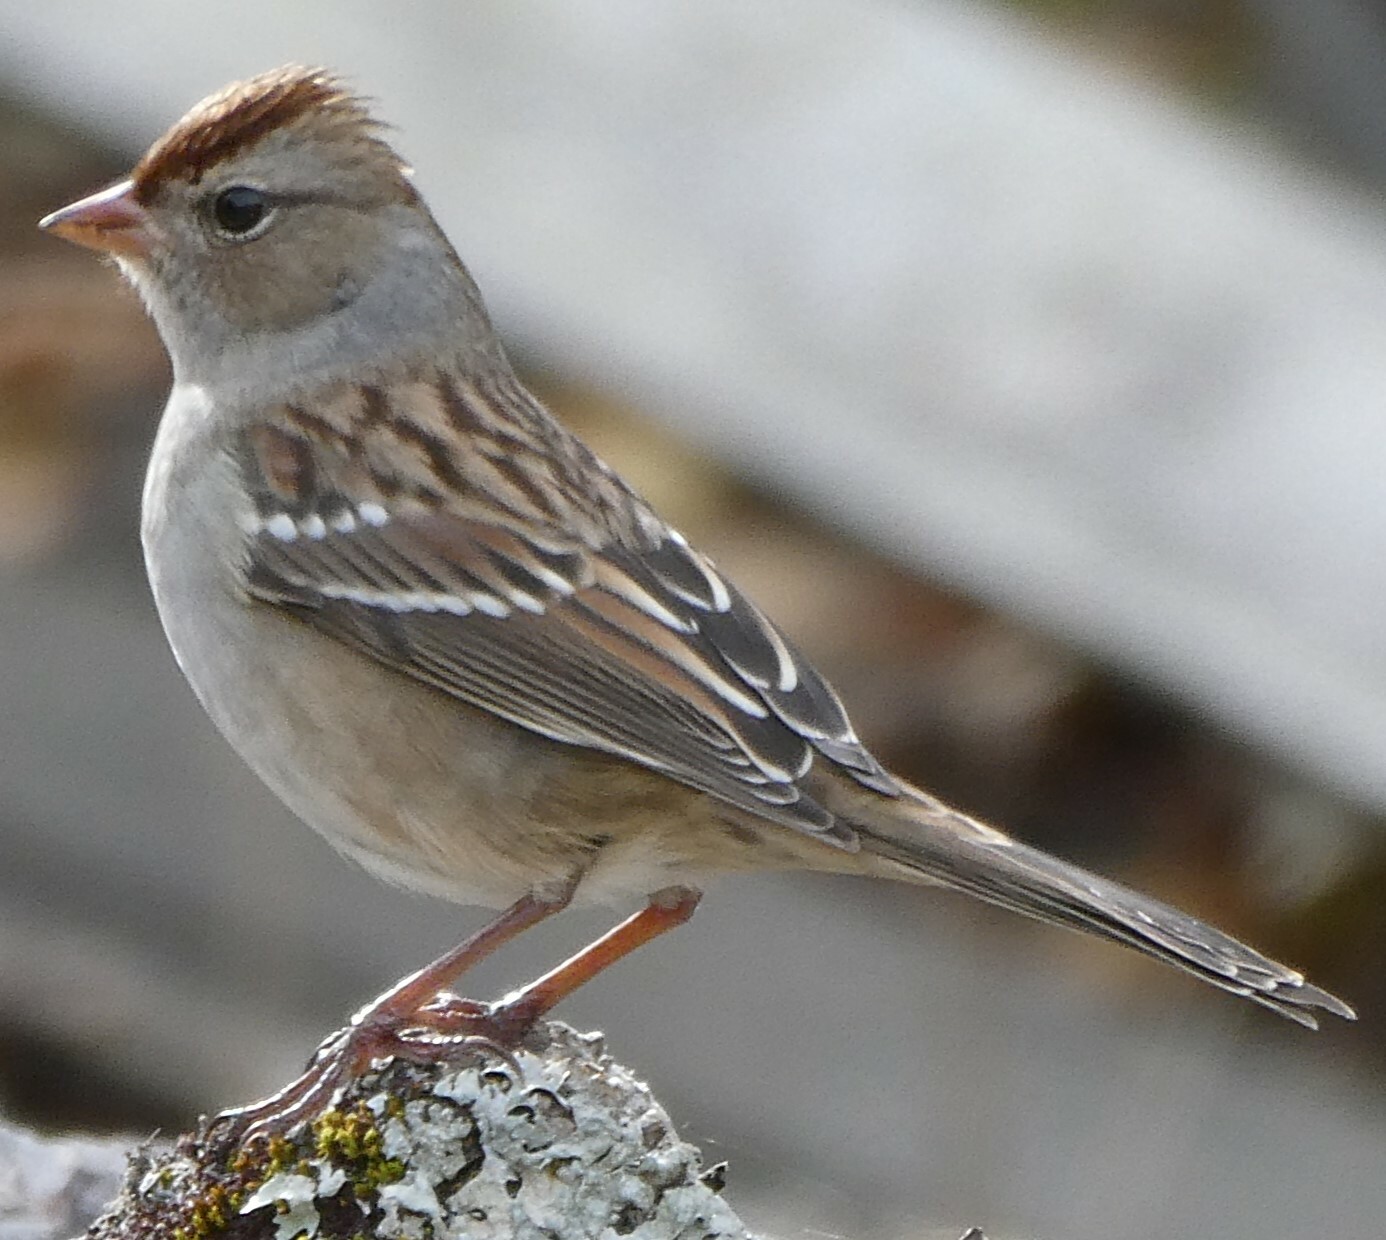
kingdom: Animalia
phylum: Chordata
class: Aves
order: Passeriformes
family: Passerellidae
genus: Zonotrichia
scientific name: Zonotrichia leucophrys
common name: White-crowned sparrow
